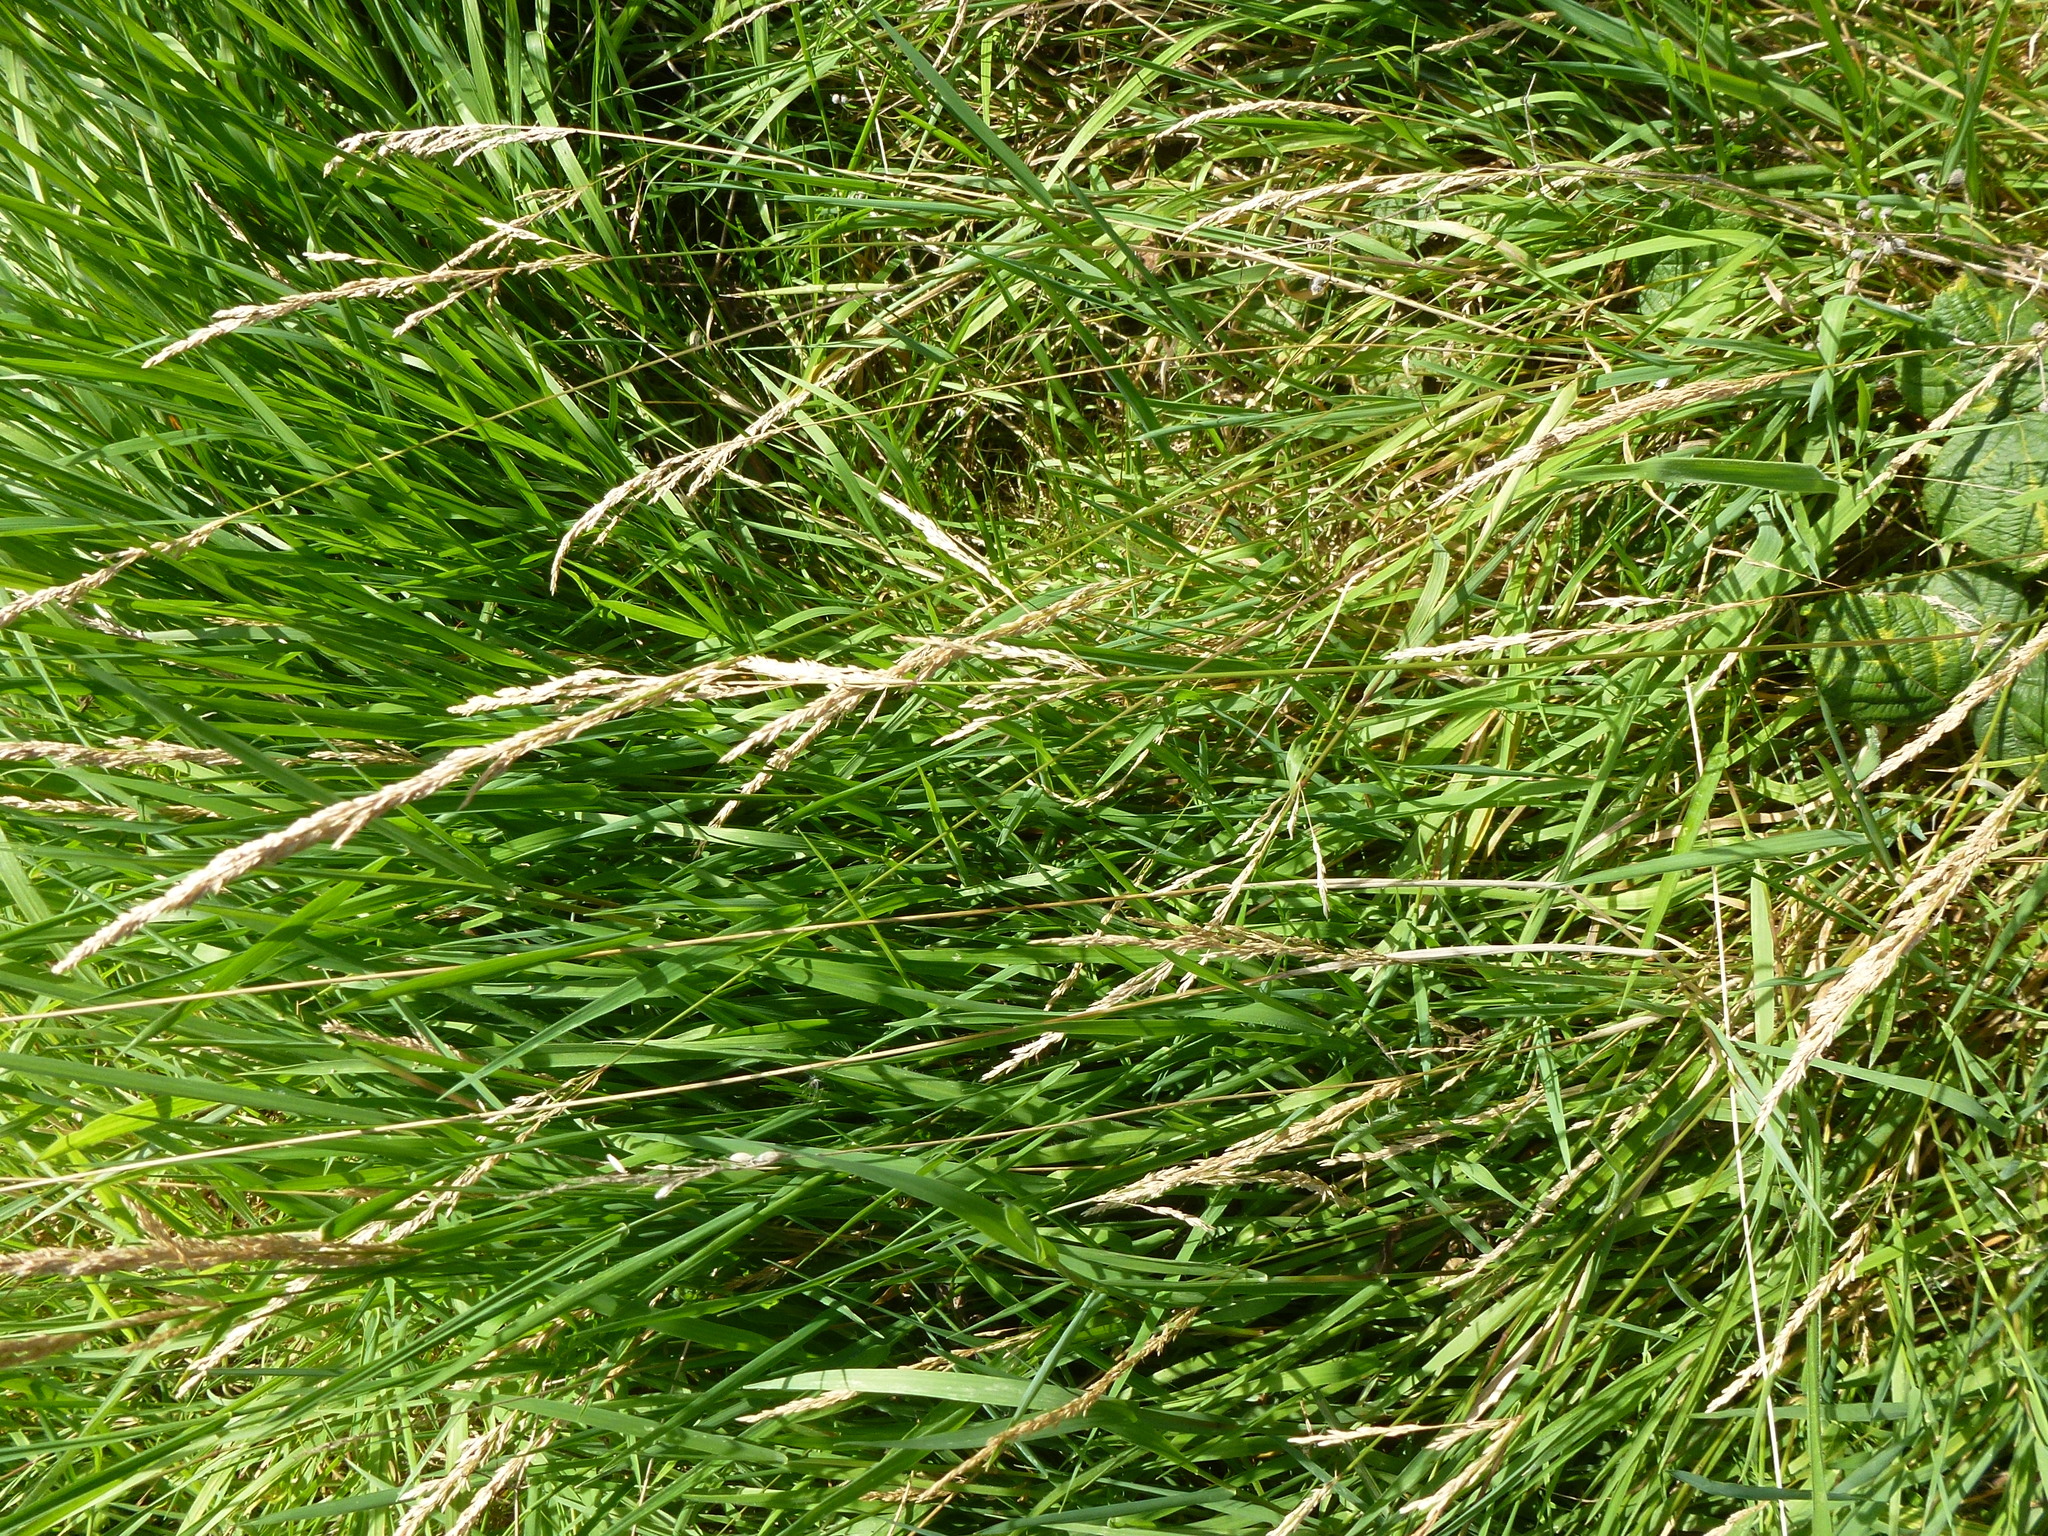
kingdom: Plantae
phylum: Tracheophyta
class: Liliopsida
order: Poales
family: Poaceae
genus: Agrostis
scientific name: Agrostis stolonifera
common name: Creeping bentgrass
